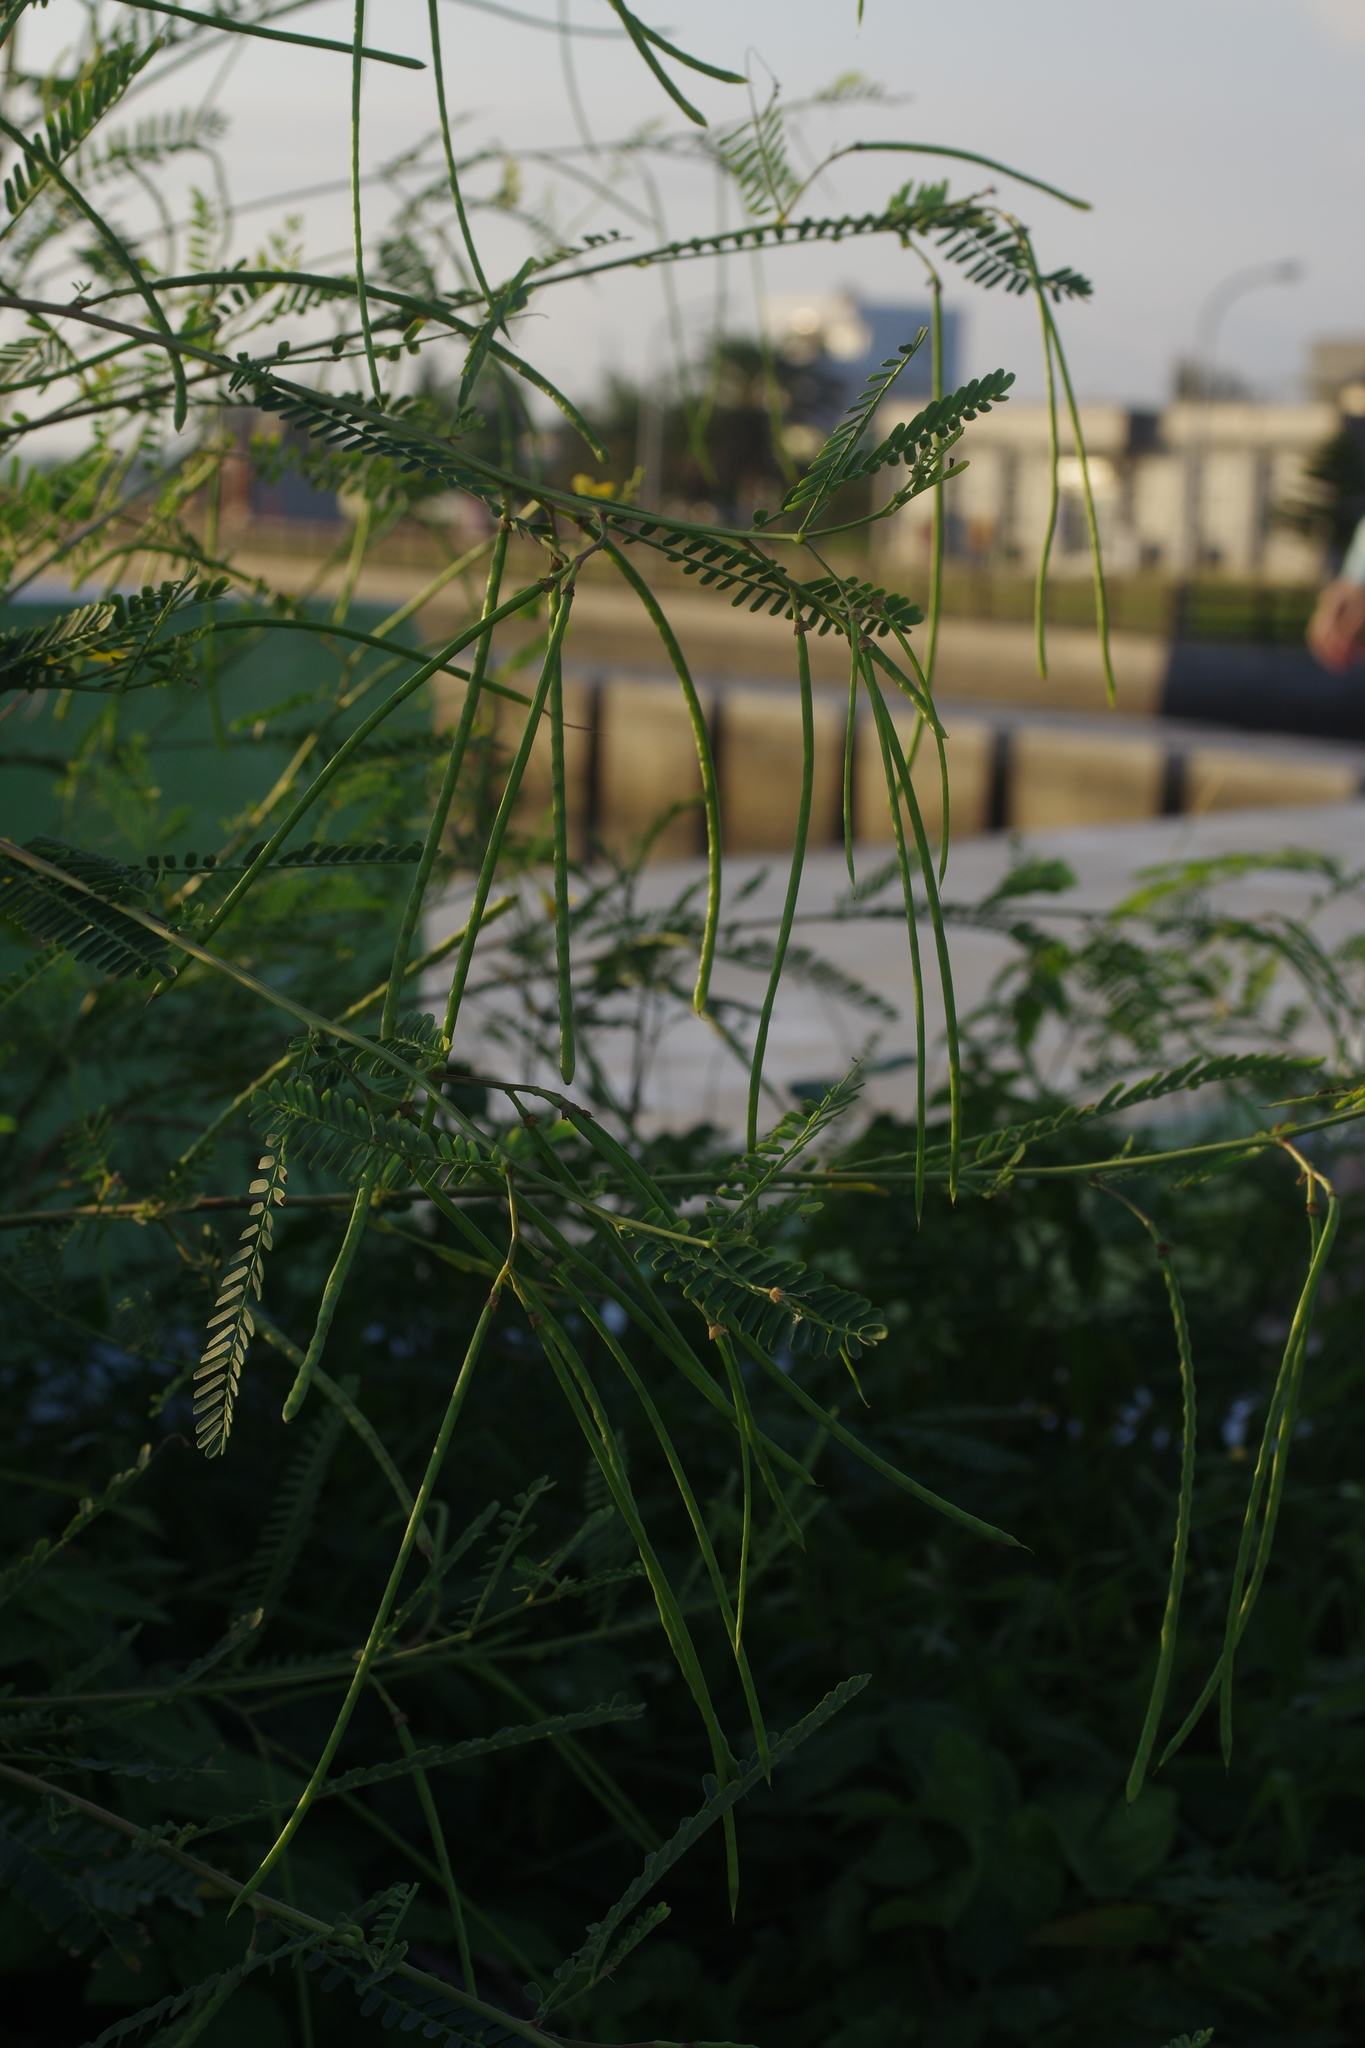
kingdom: Plantae
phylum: Tracheophyta
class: Magnoliopsida
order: Fabales
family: Fabaceae
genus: Sesbania
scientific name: Sesbania cannabina
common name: Canicha
